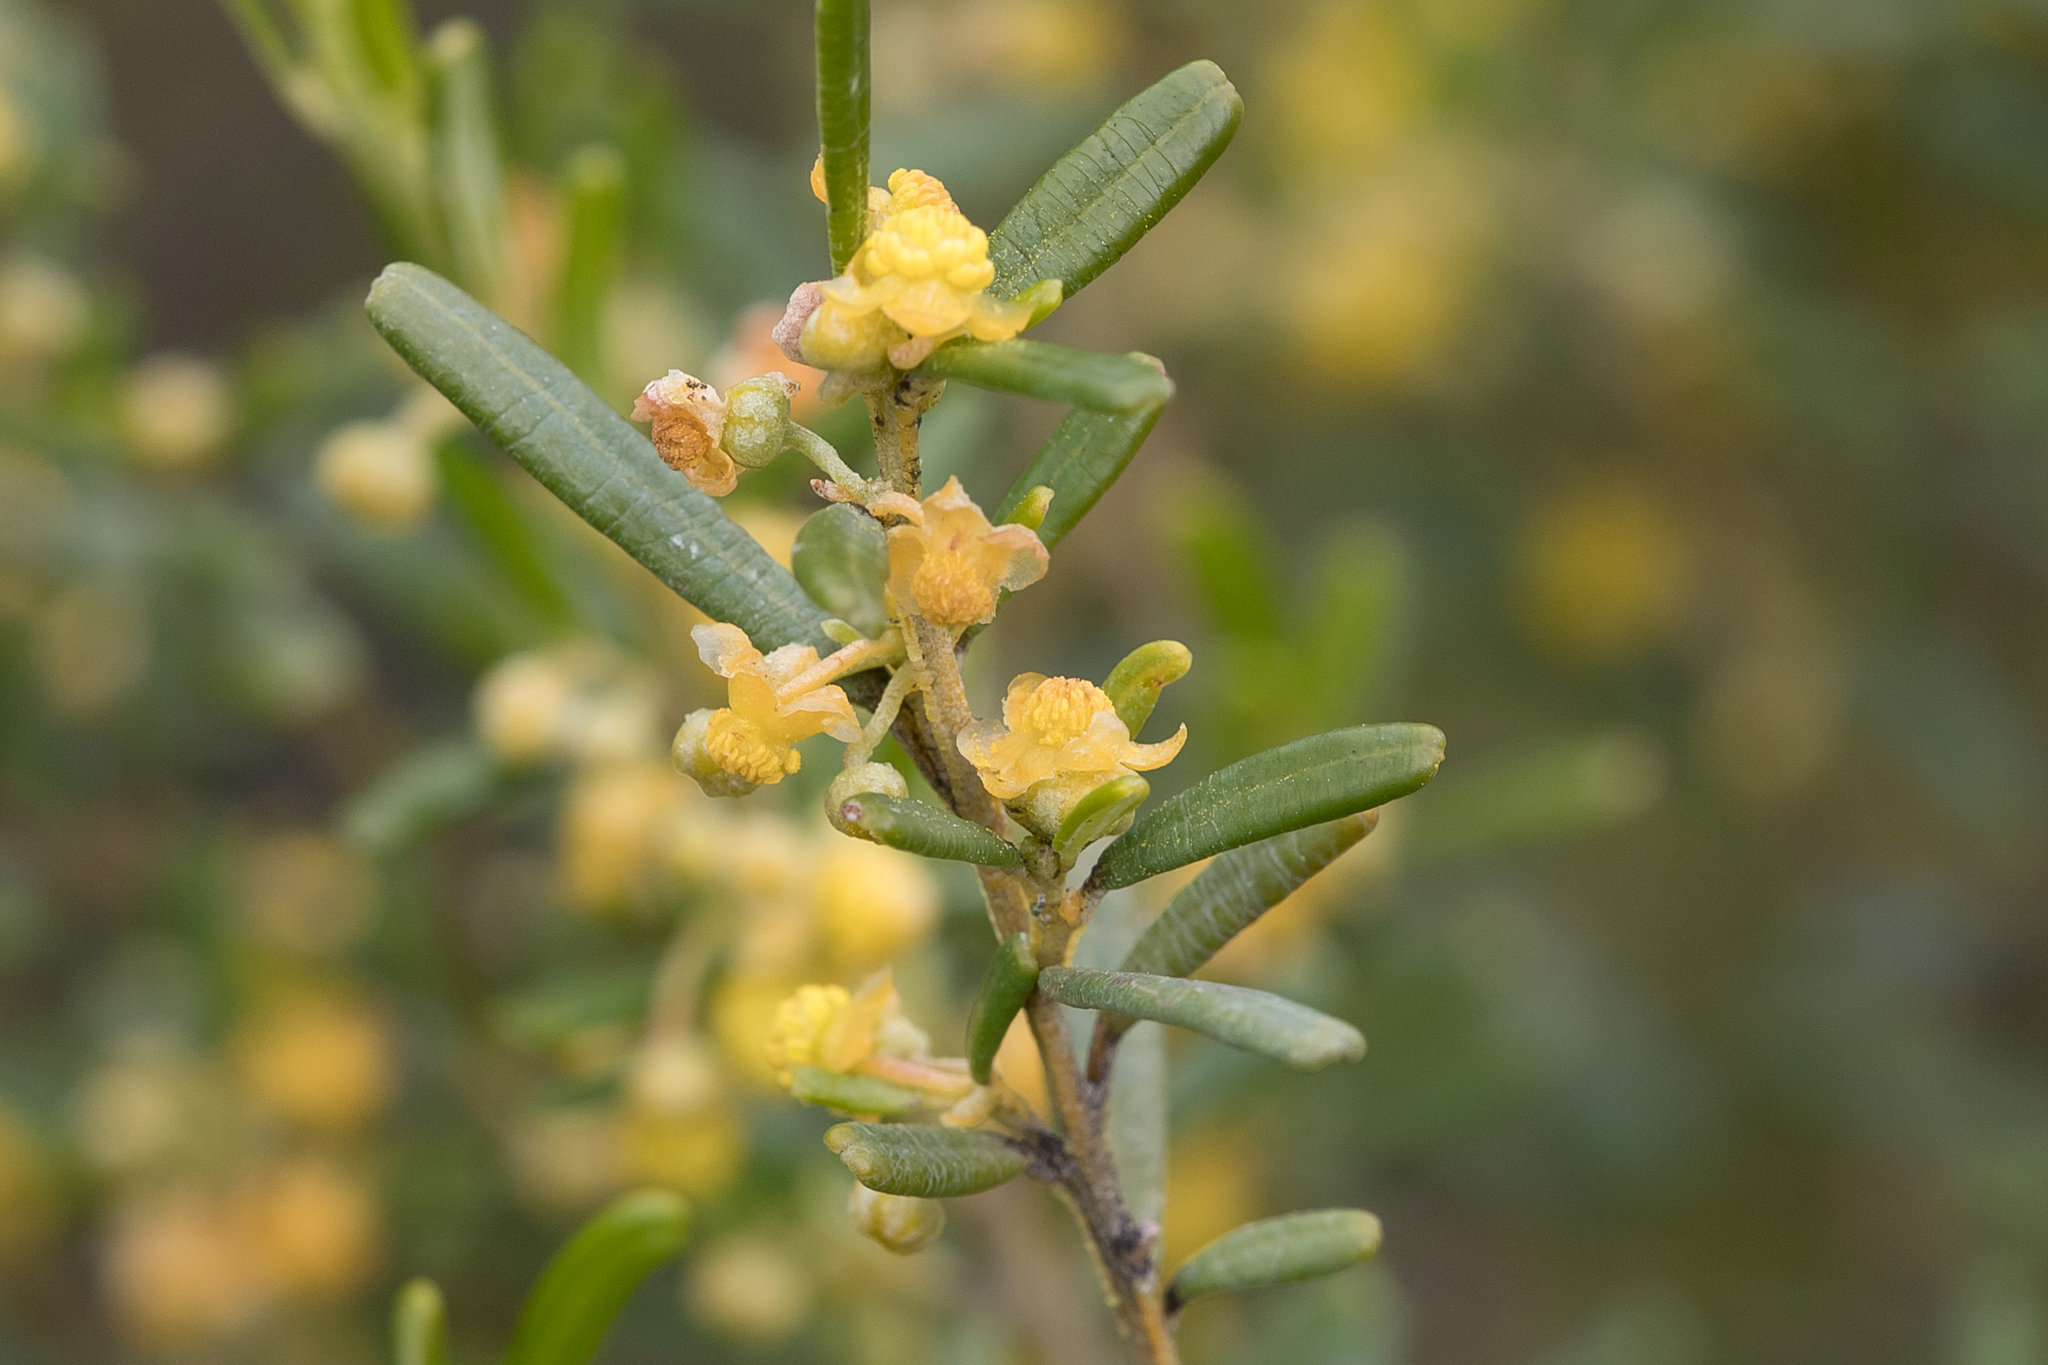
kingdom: Plantae
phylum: Tracheophyta
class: Magnoliopsida
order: Malpighiales
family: Euphorbiaceae
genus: Beyeria
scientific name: Beyeria lechenaultii
